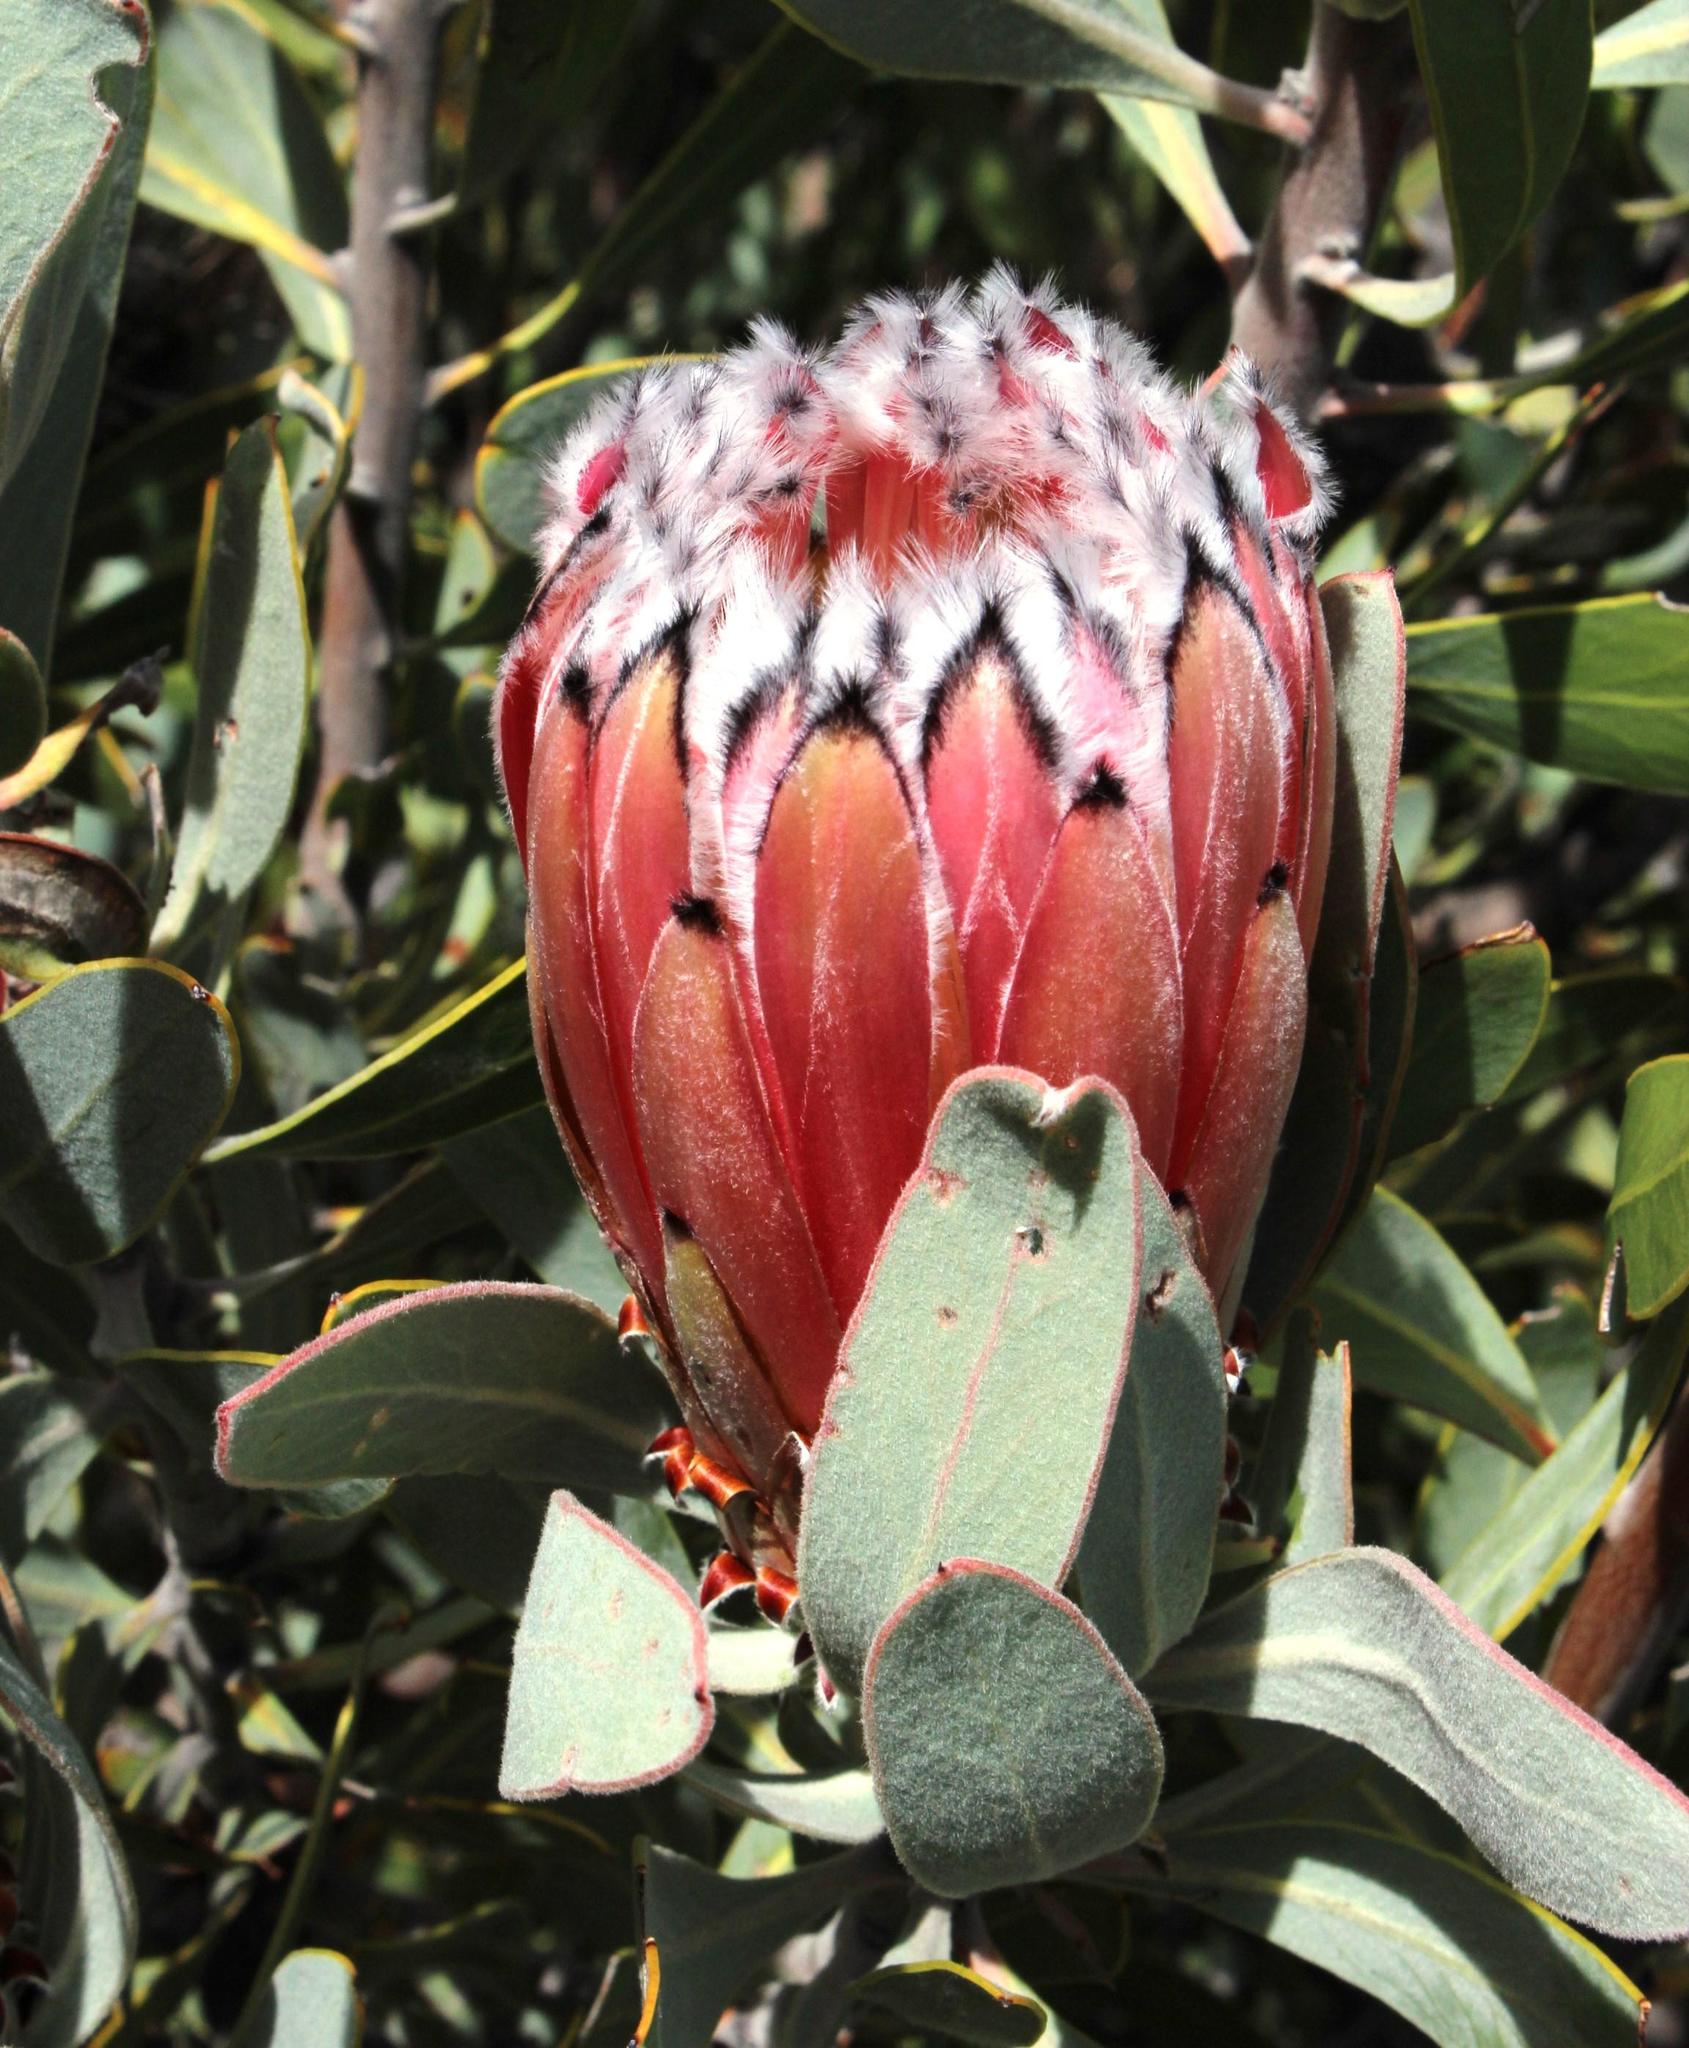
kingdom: Plantae
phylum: Tracheophyta
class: Magnoliopsida
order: Proteales
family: Proteaceae
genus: Protea
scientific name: Protea laurifolia
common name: Grey-leaf sugarbsh
